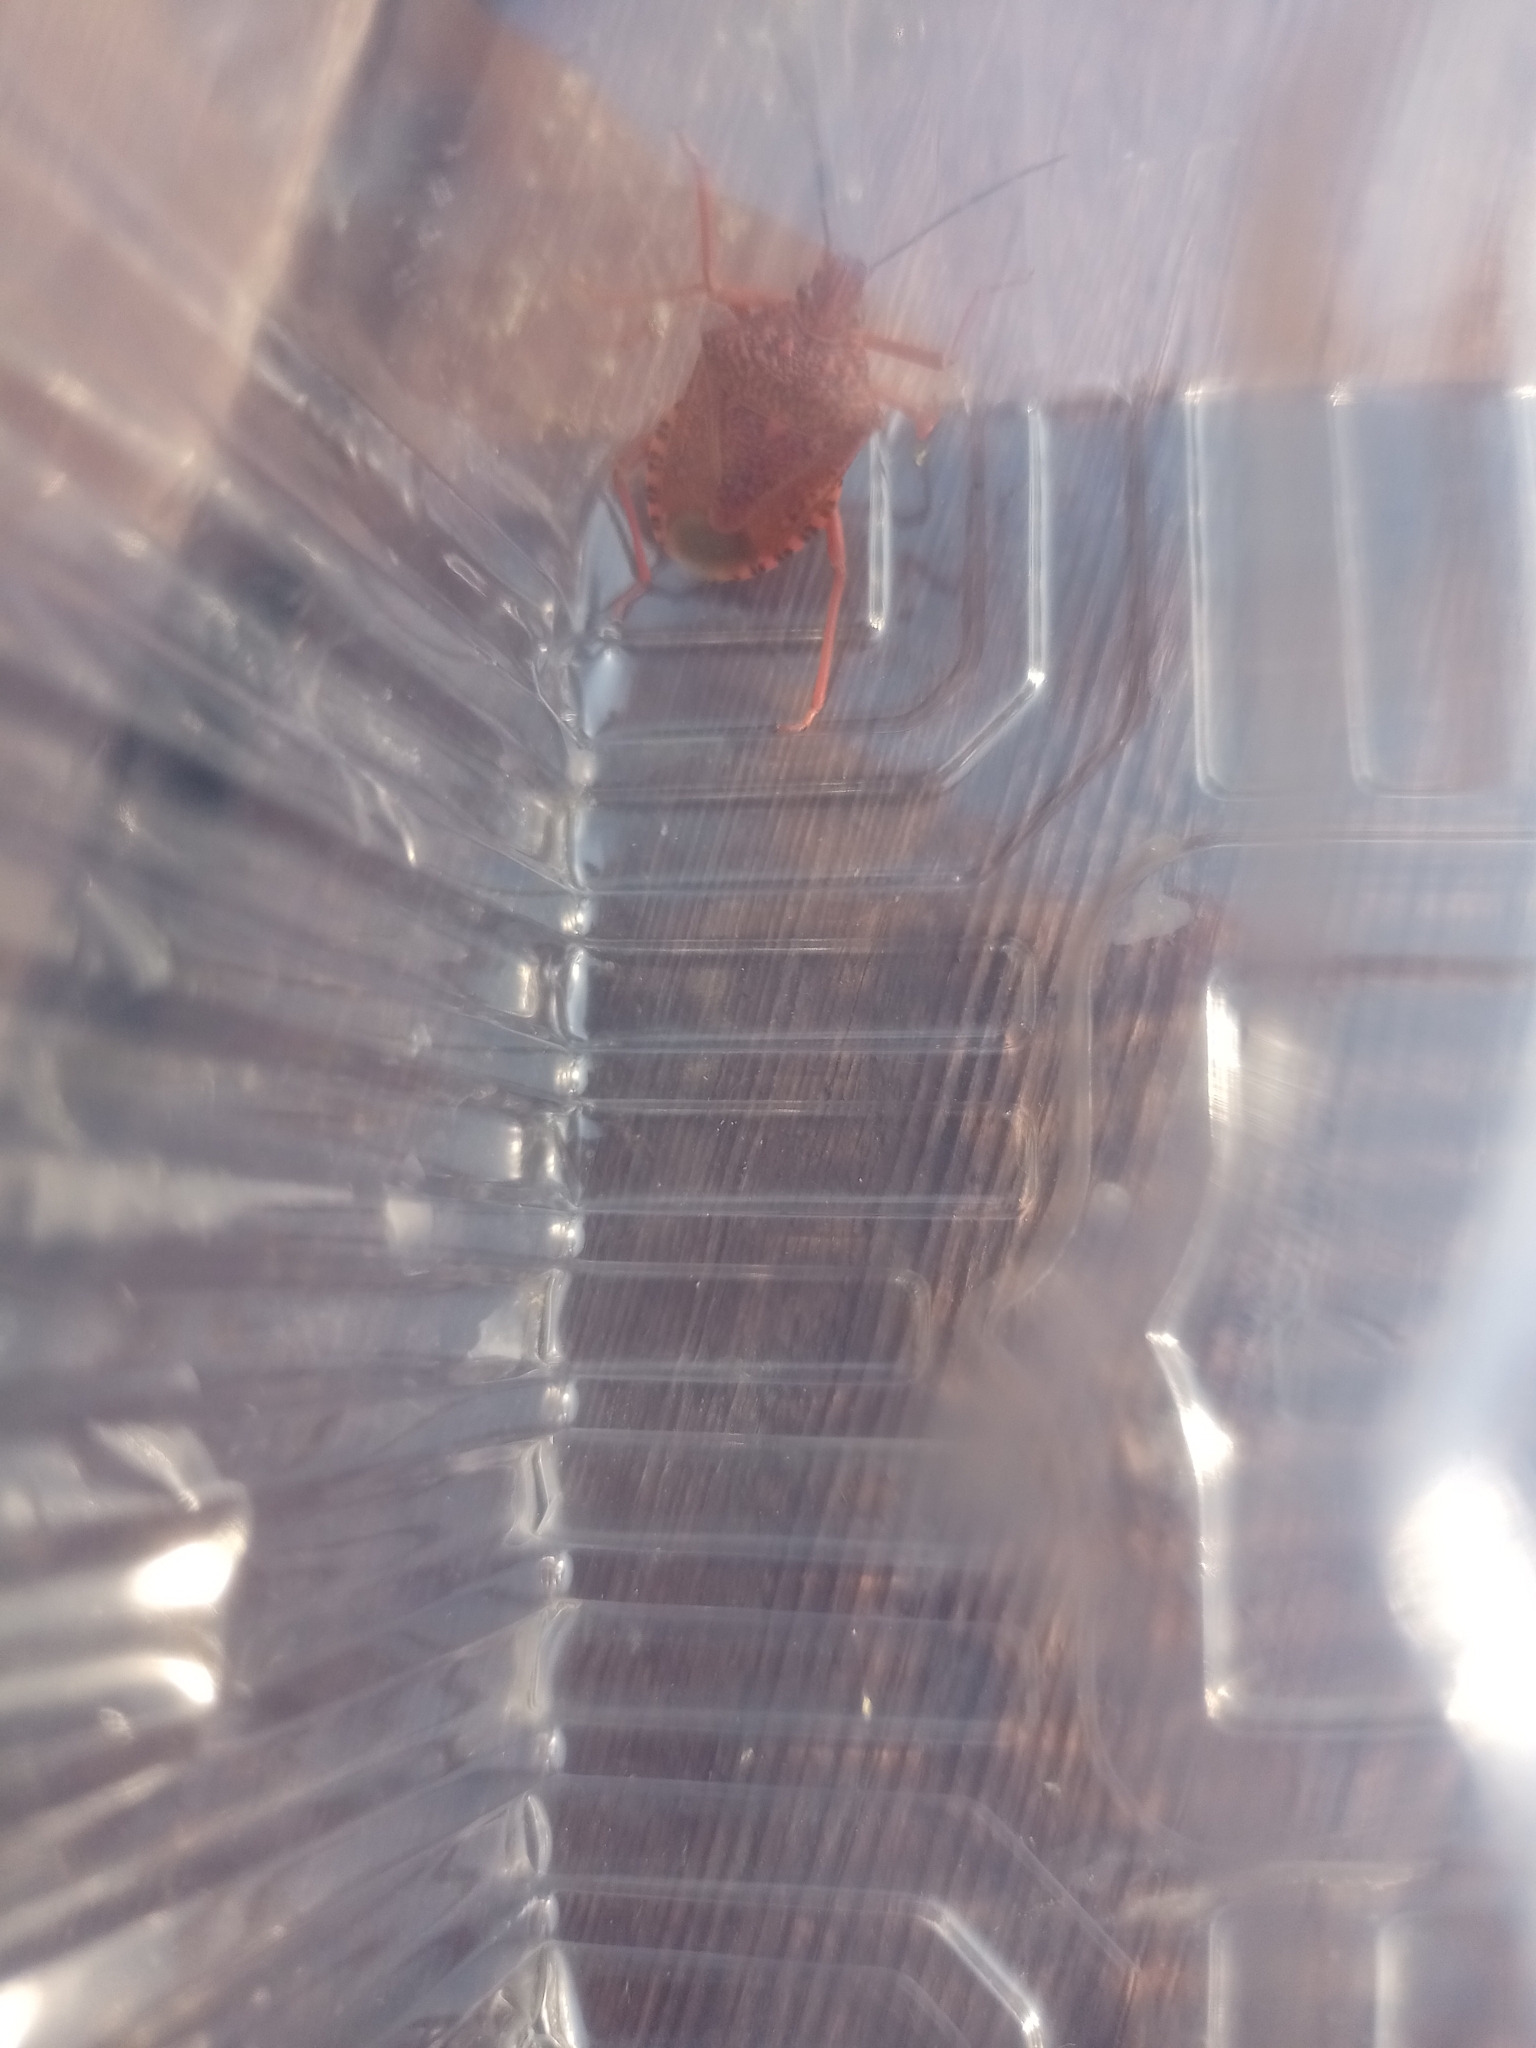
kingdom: Animalia
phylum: Arthropoda
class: Insecta
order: Hemiptera
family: Pentatomidae
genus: Apodiphus
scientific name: Apodiphus
